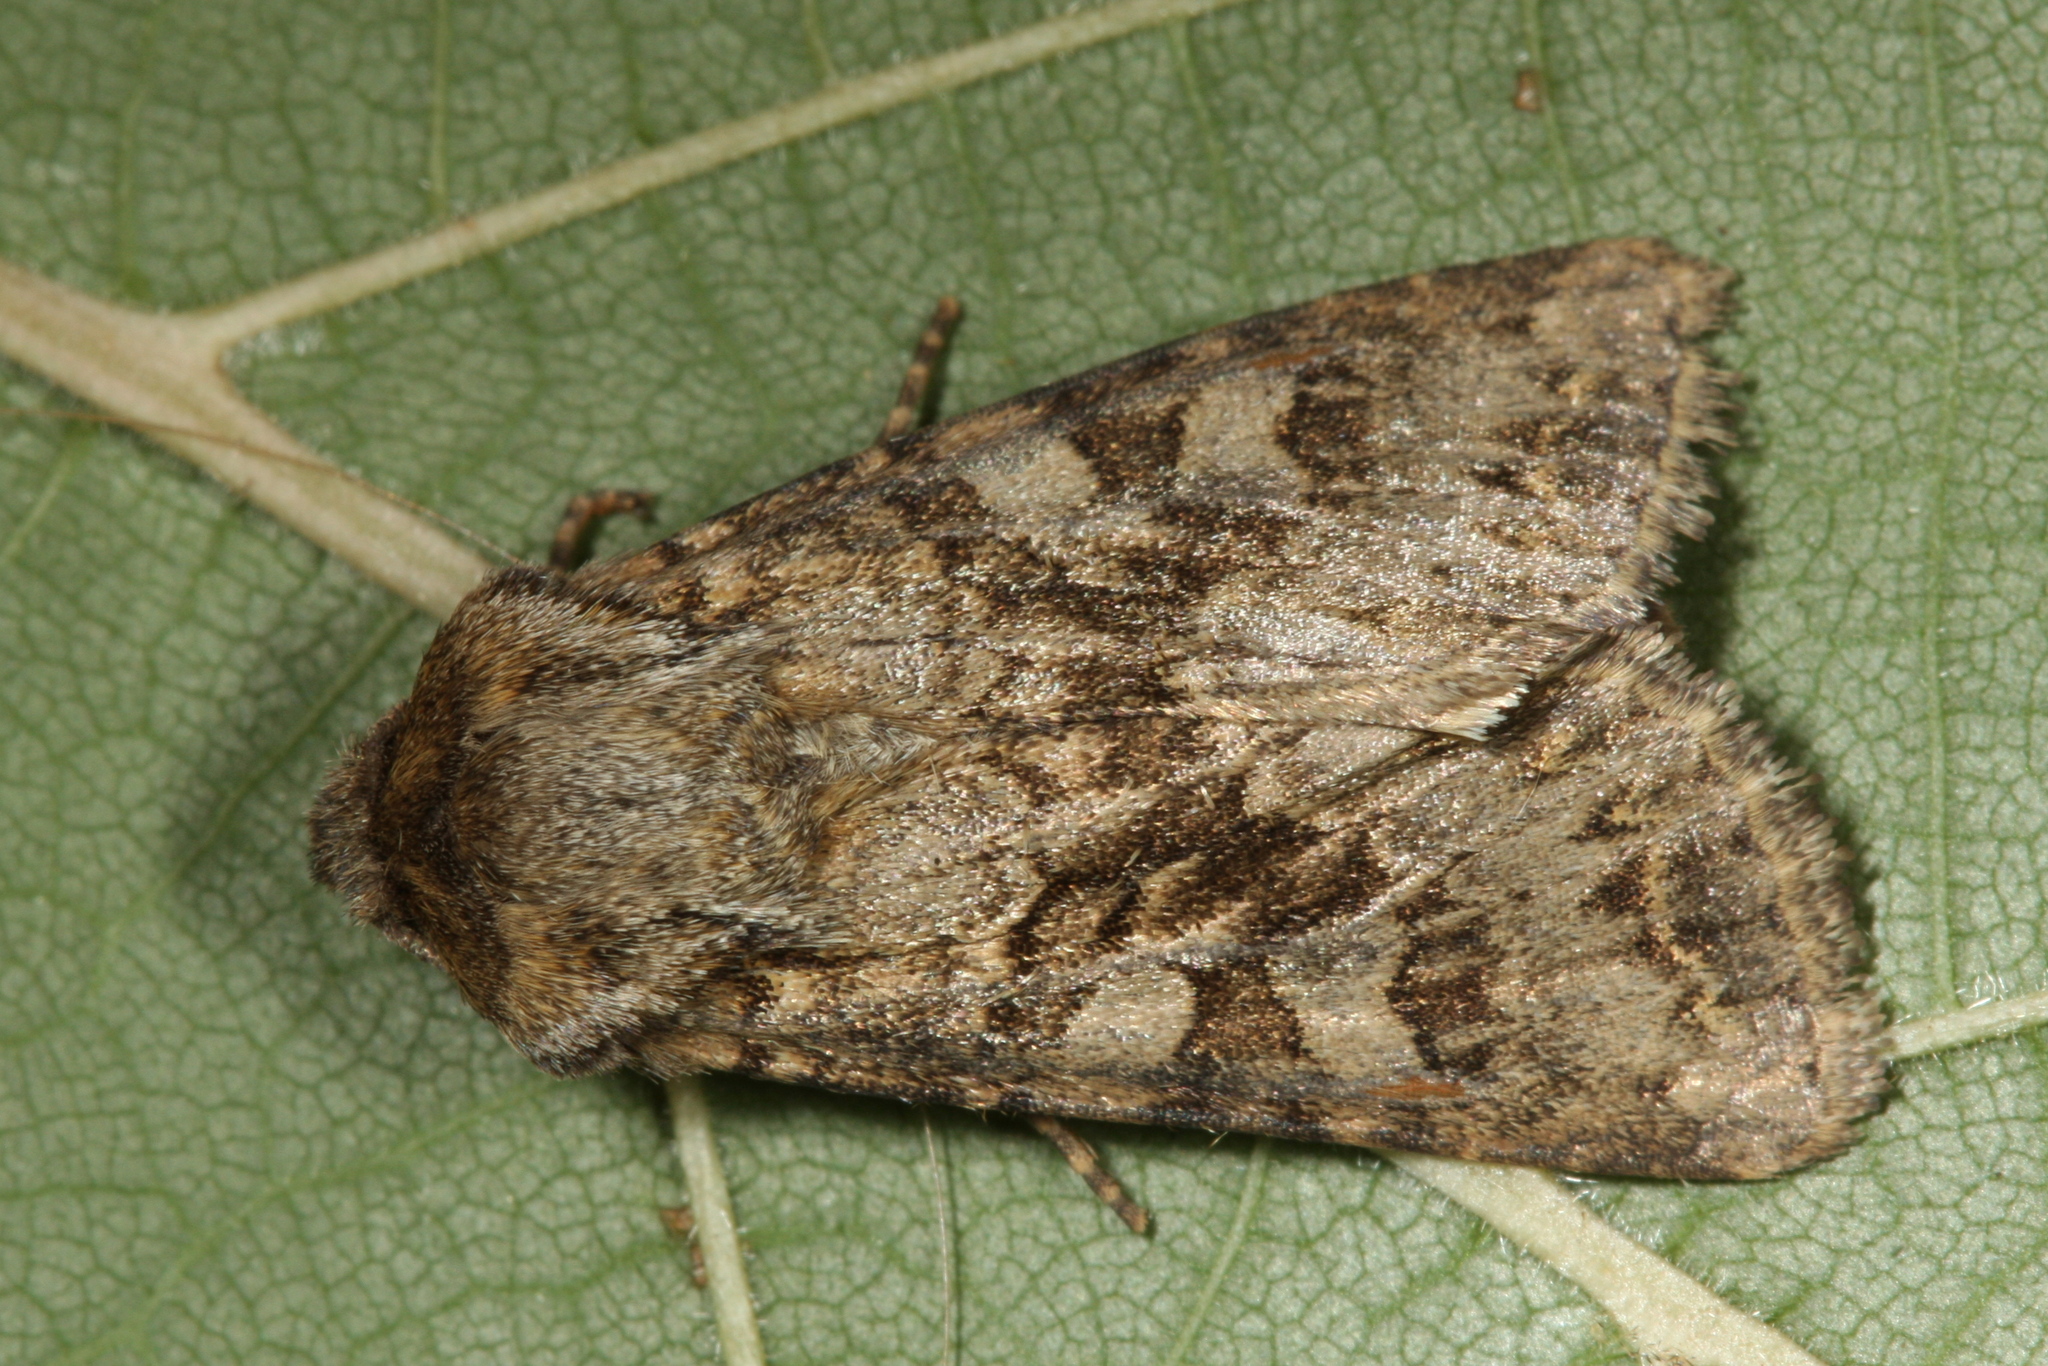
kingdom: Animalia
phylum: Arthropoda
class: Insecta
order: Lepidoptera
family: Noctuidae
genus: Hada
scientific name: Hada plebeja
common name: Shears
